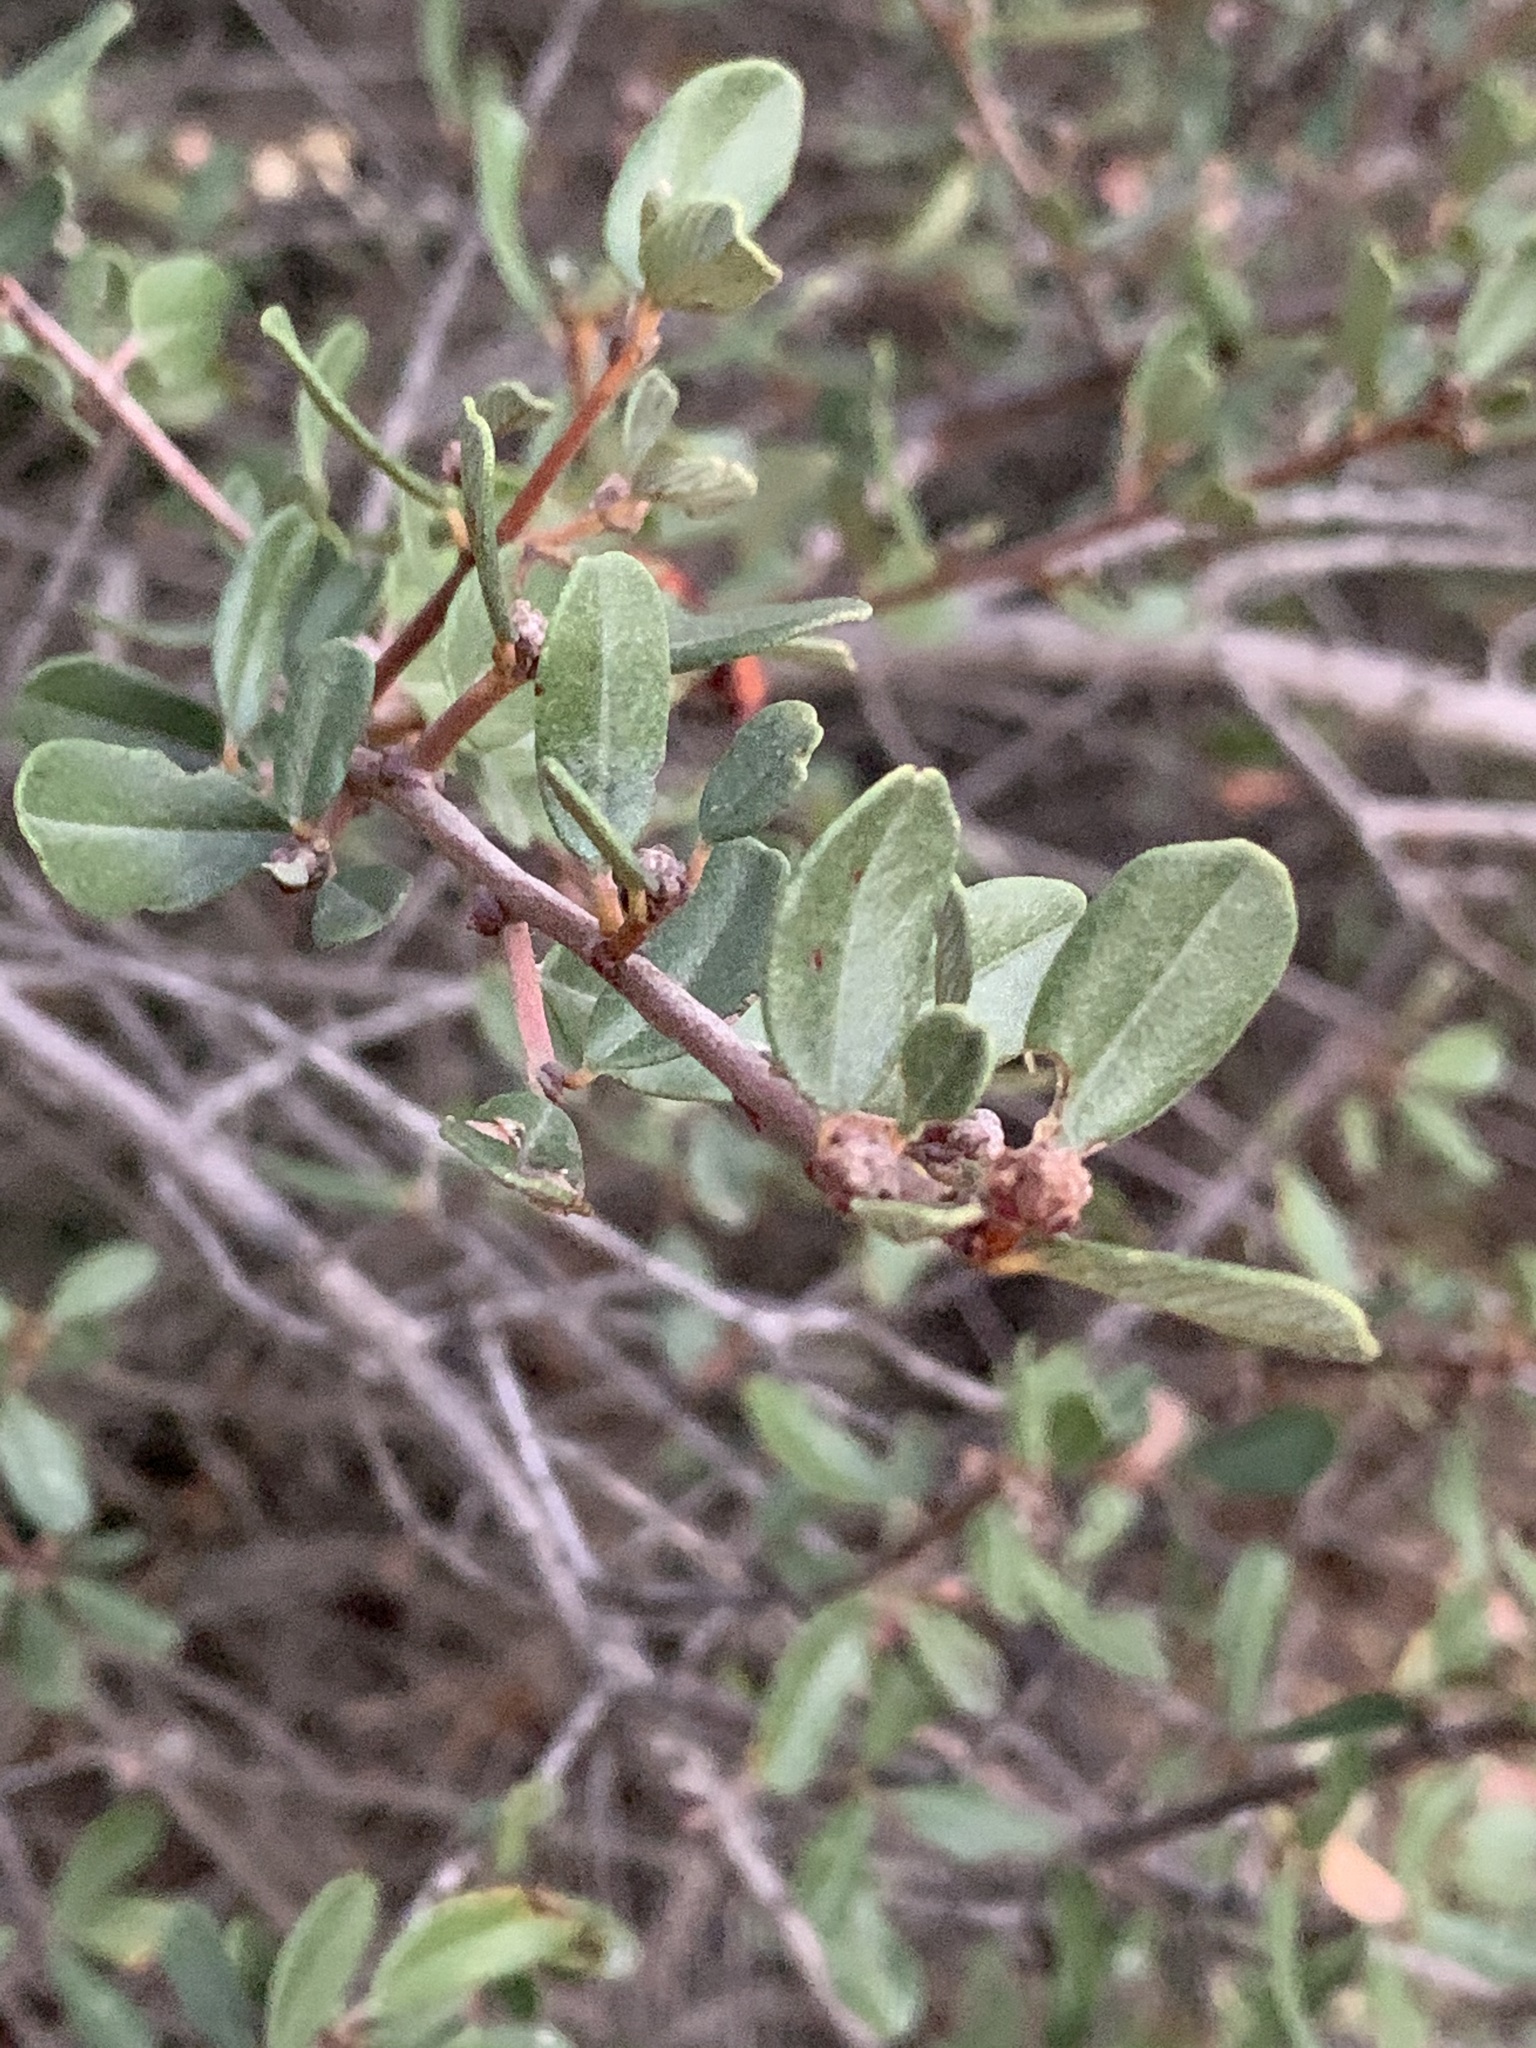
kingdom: Plantae
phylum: Tracheophyta
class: Magnoliopsida
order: Rosales
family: Rhamnaceae
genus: Ceanothus
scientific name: Ceanothus megacarpus
